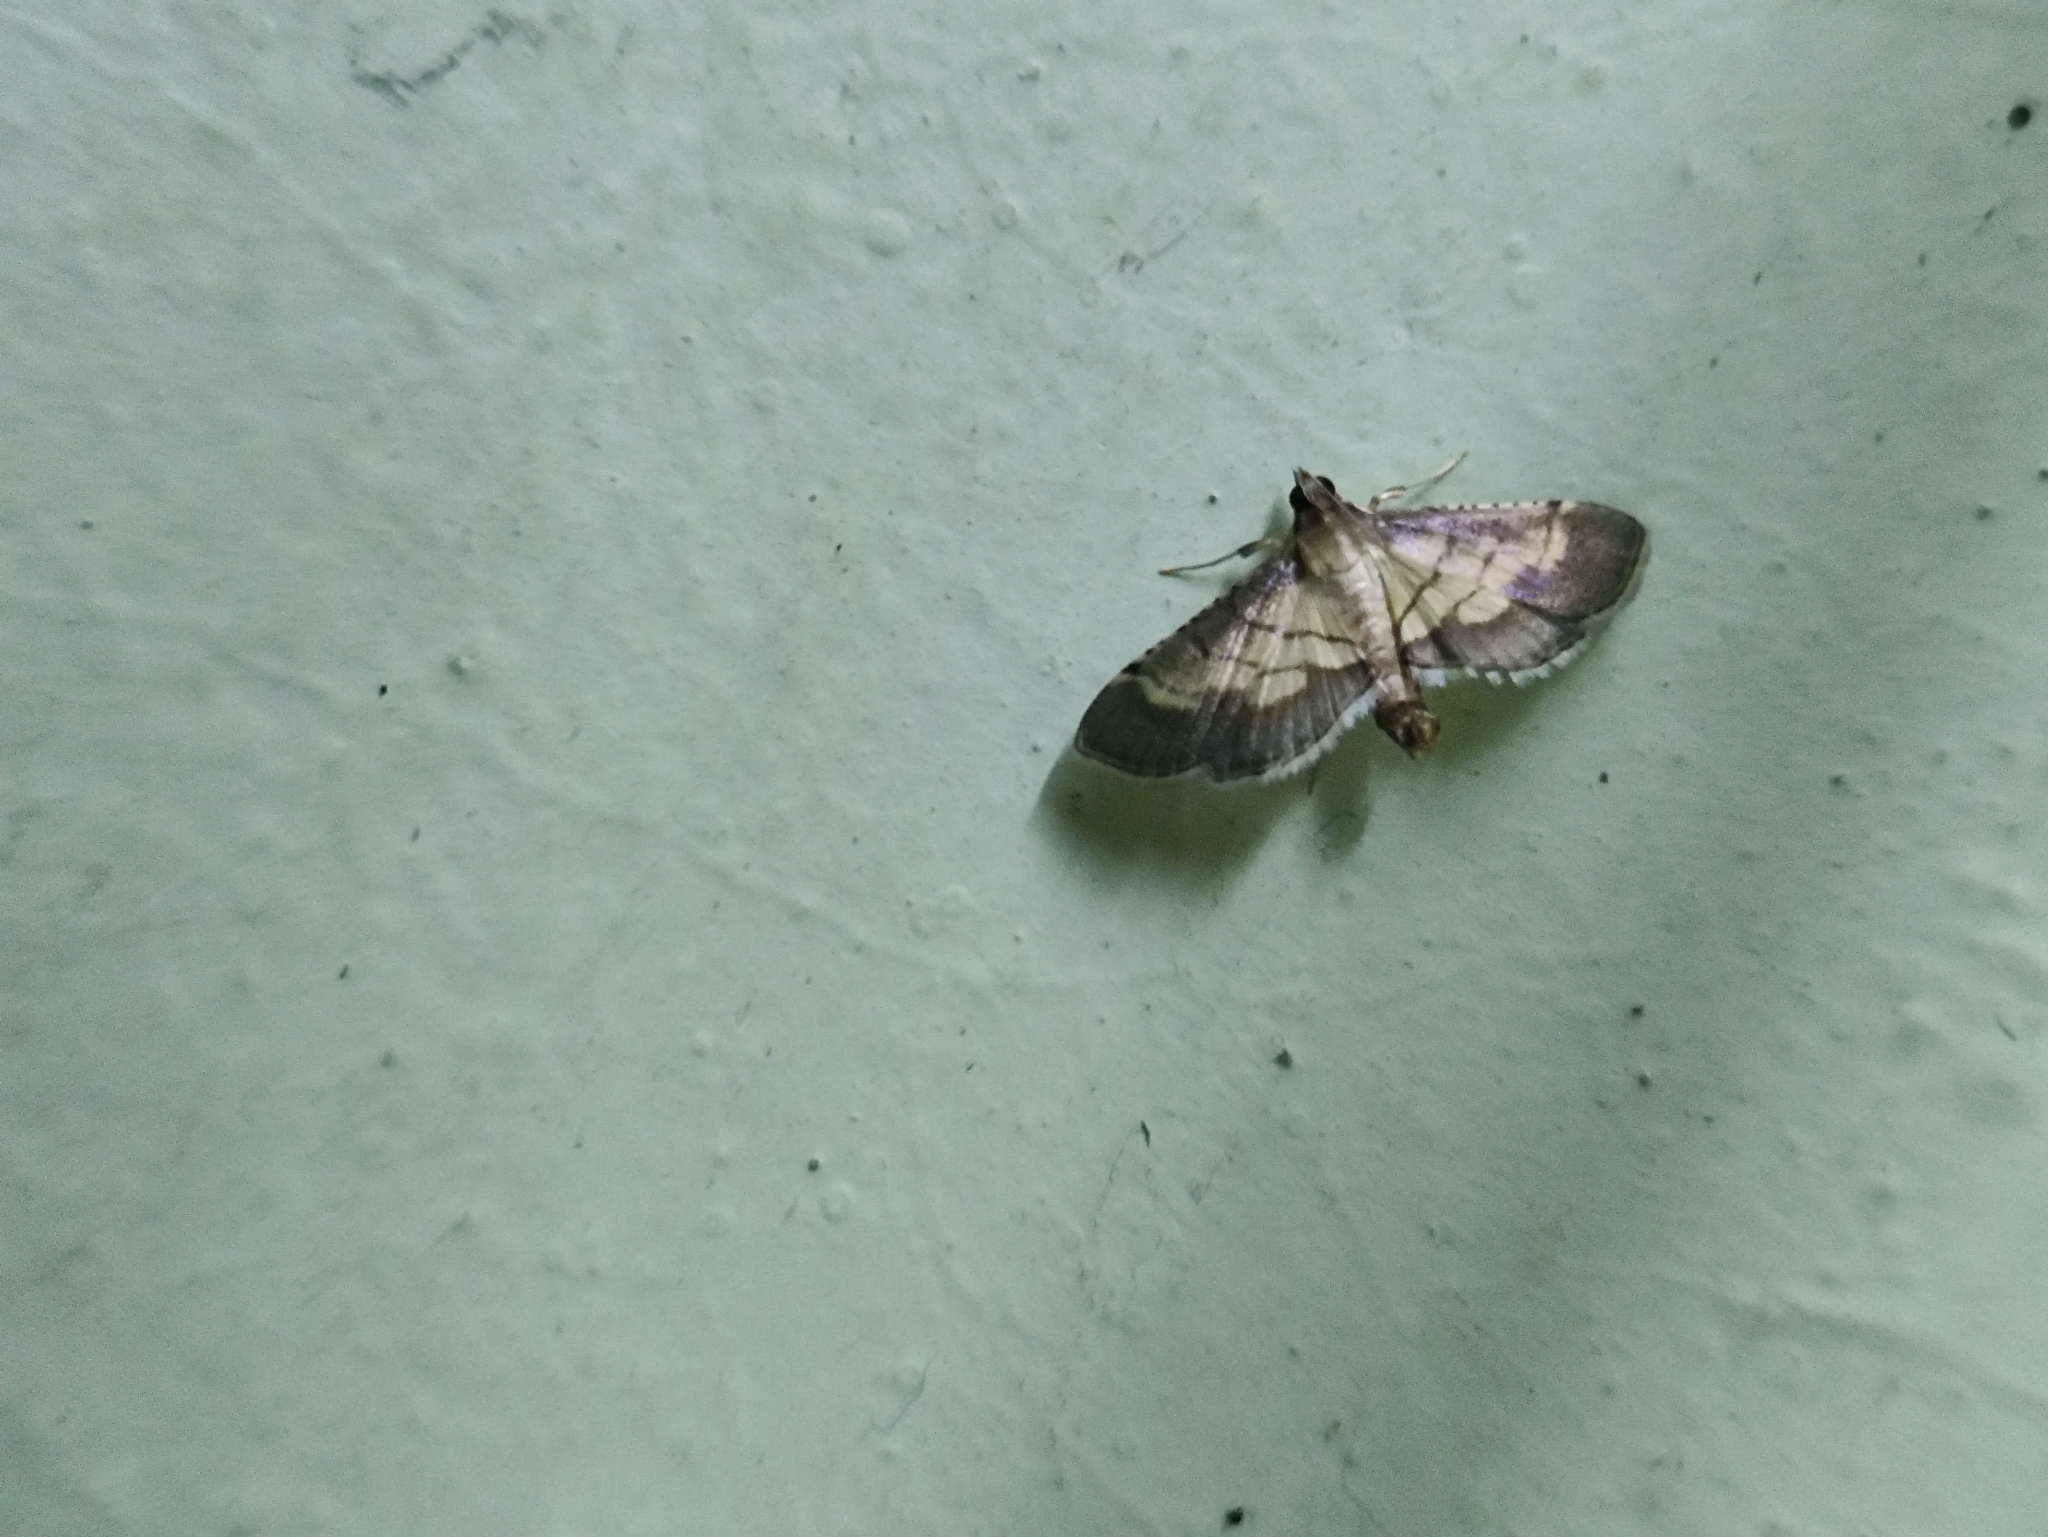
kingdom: Animalia
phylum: Arthropoda
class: Insecta
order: Lepidoptera
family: Crambidae
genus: Cnaphalocrocis
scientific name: Cnaphalocrocis trebiusalis
